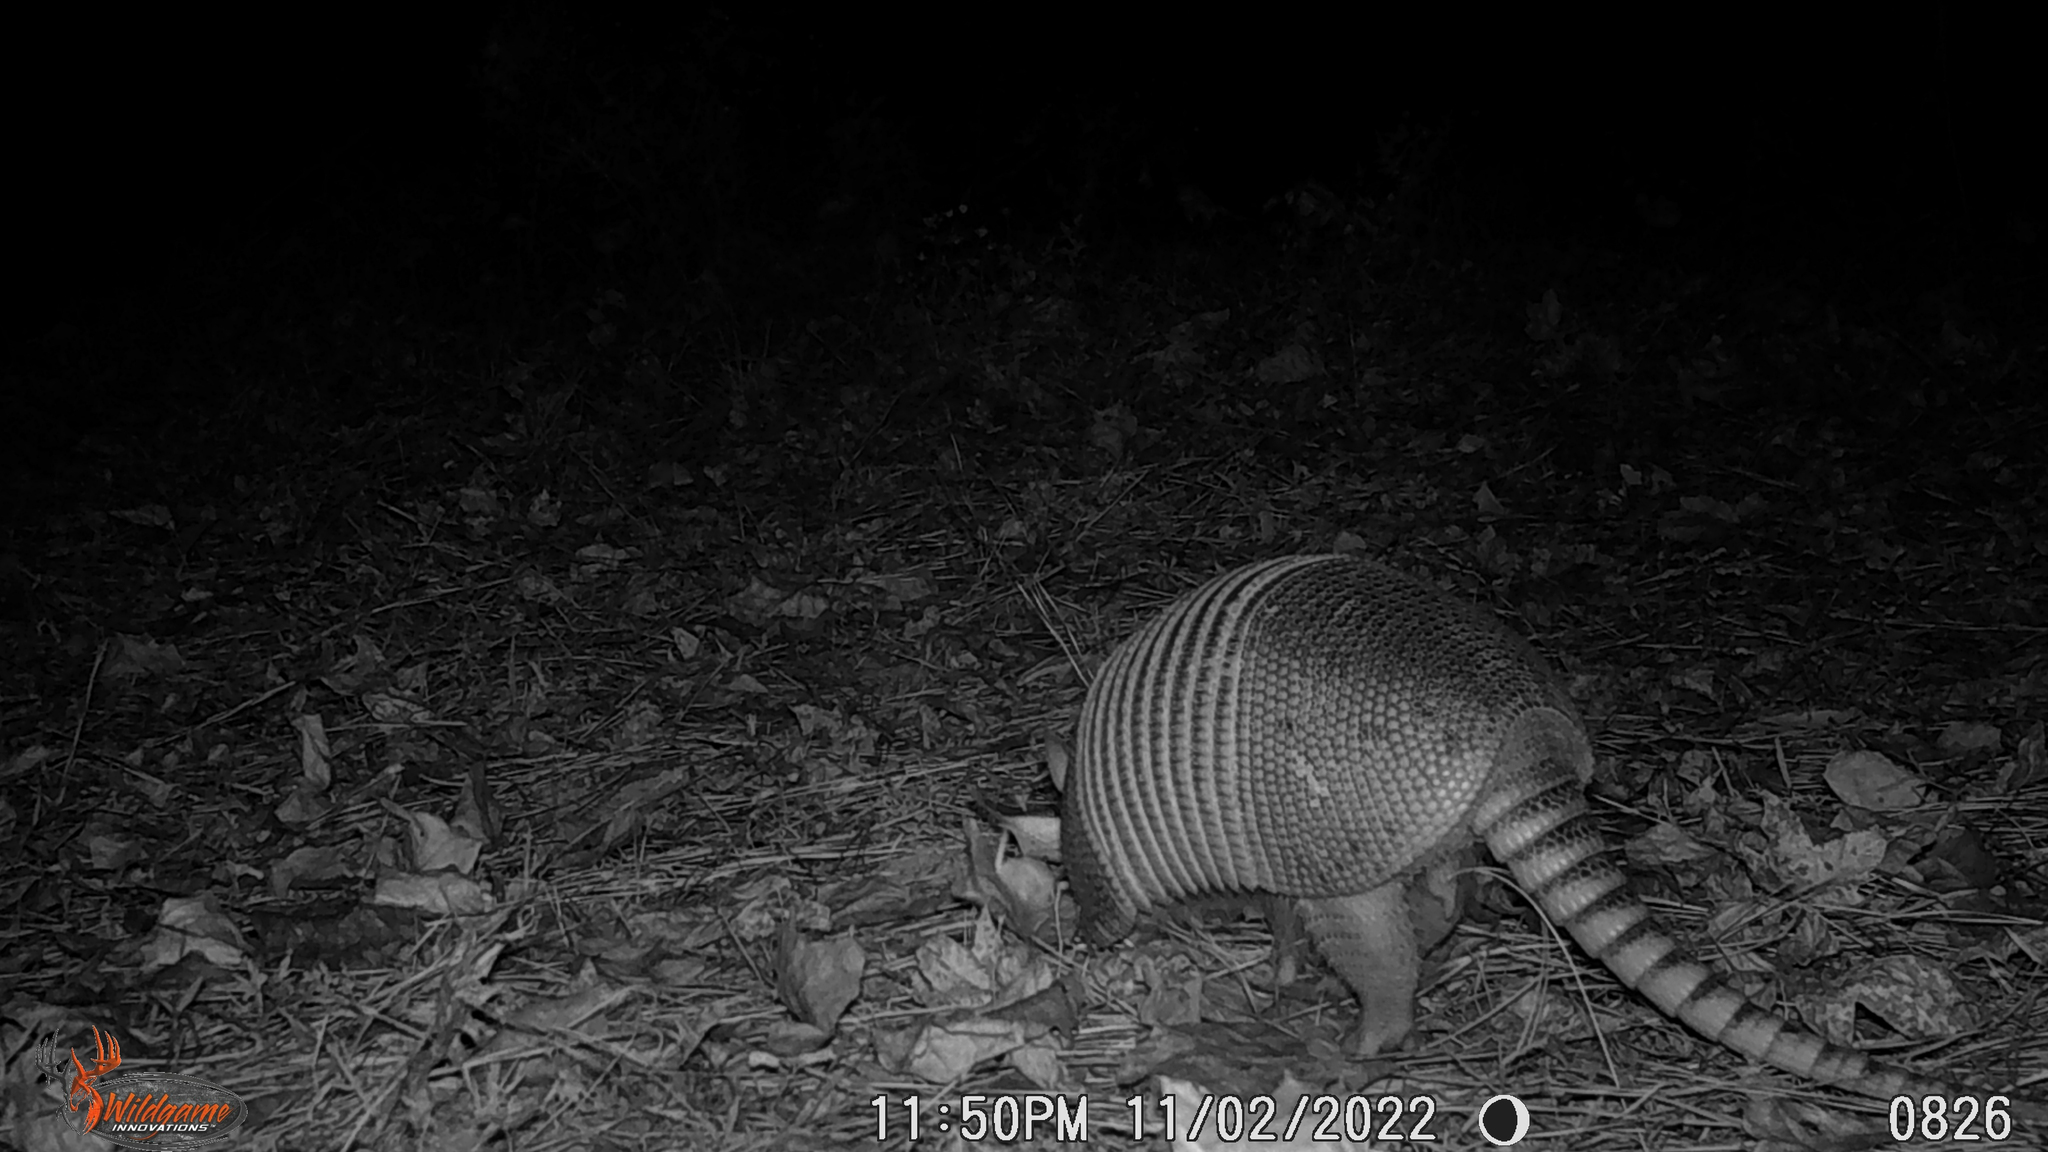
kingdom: Animalia
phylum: Chordata
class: Mammalia
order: Cingulata
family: Dasypodidae
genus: Dasypus
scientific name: Dasypus novemcinctus
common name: Nine-banded armadillo
